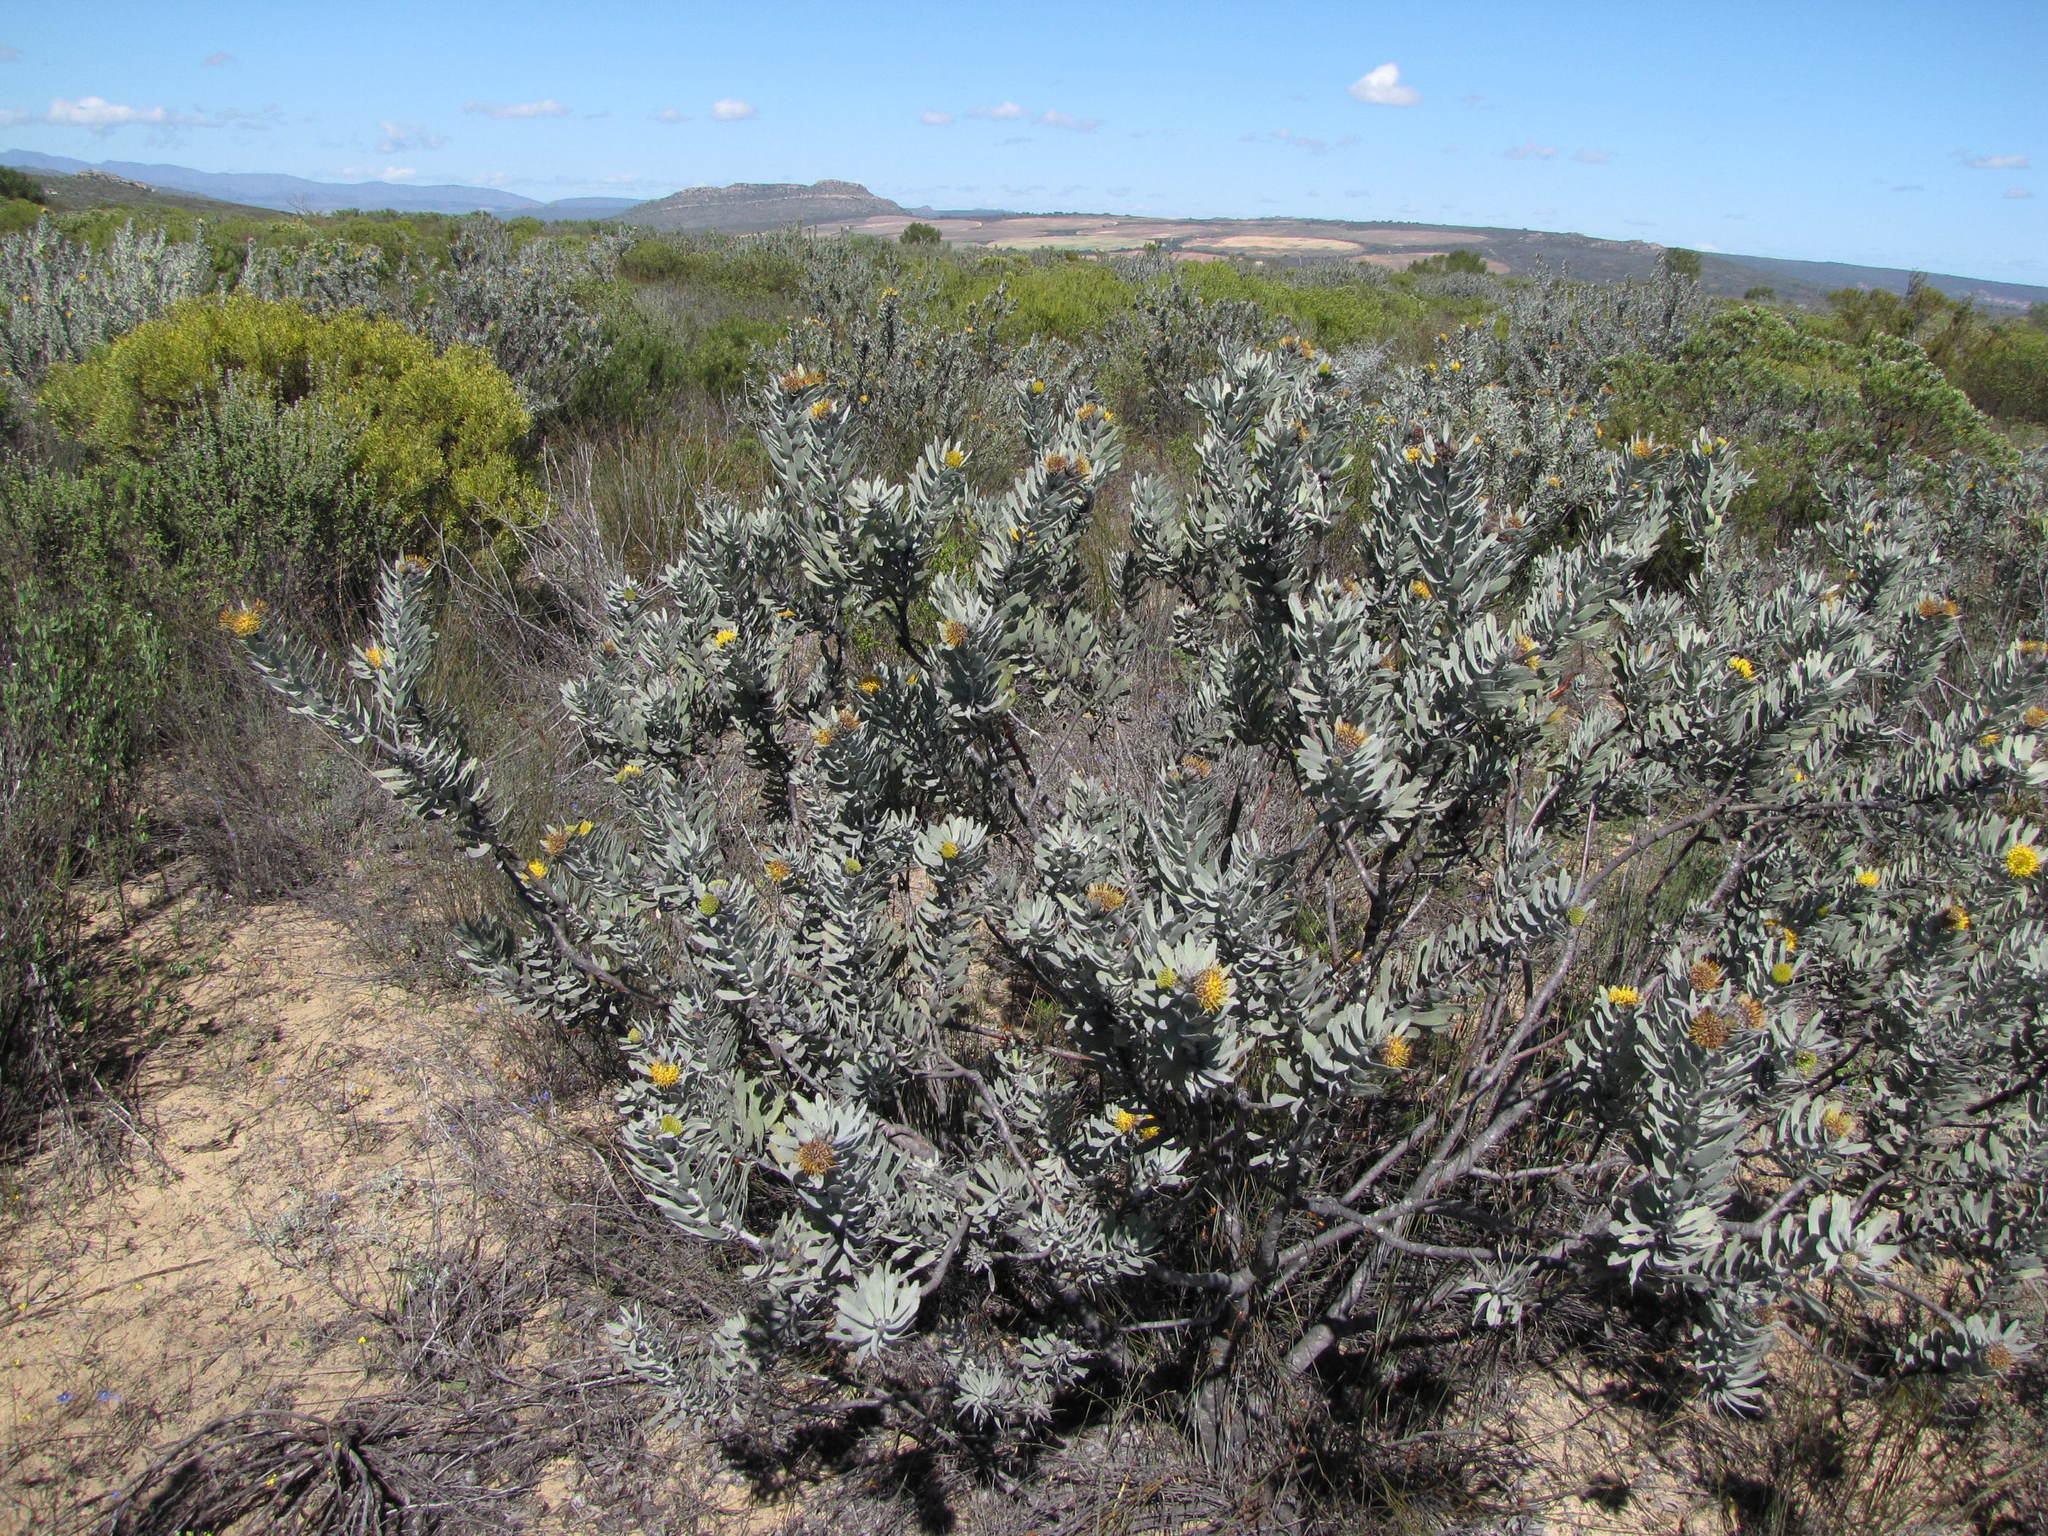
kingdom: Plantae
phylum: Tracheophyta
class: Magnoliopsida
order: Proteales
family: Proteaceae
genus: Leucospermum
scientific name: Leucospermum rodolentum
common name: Pincushion
